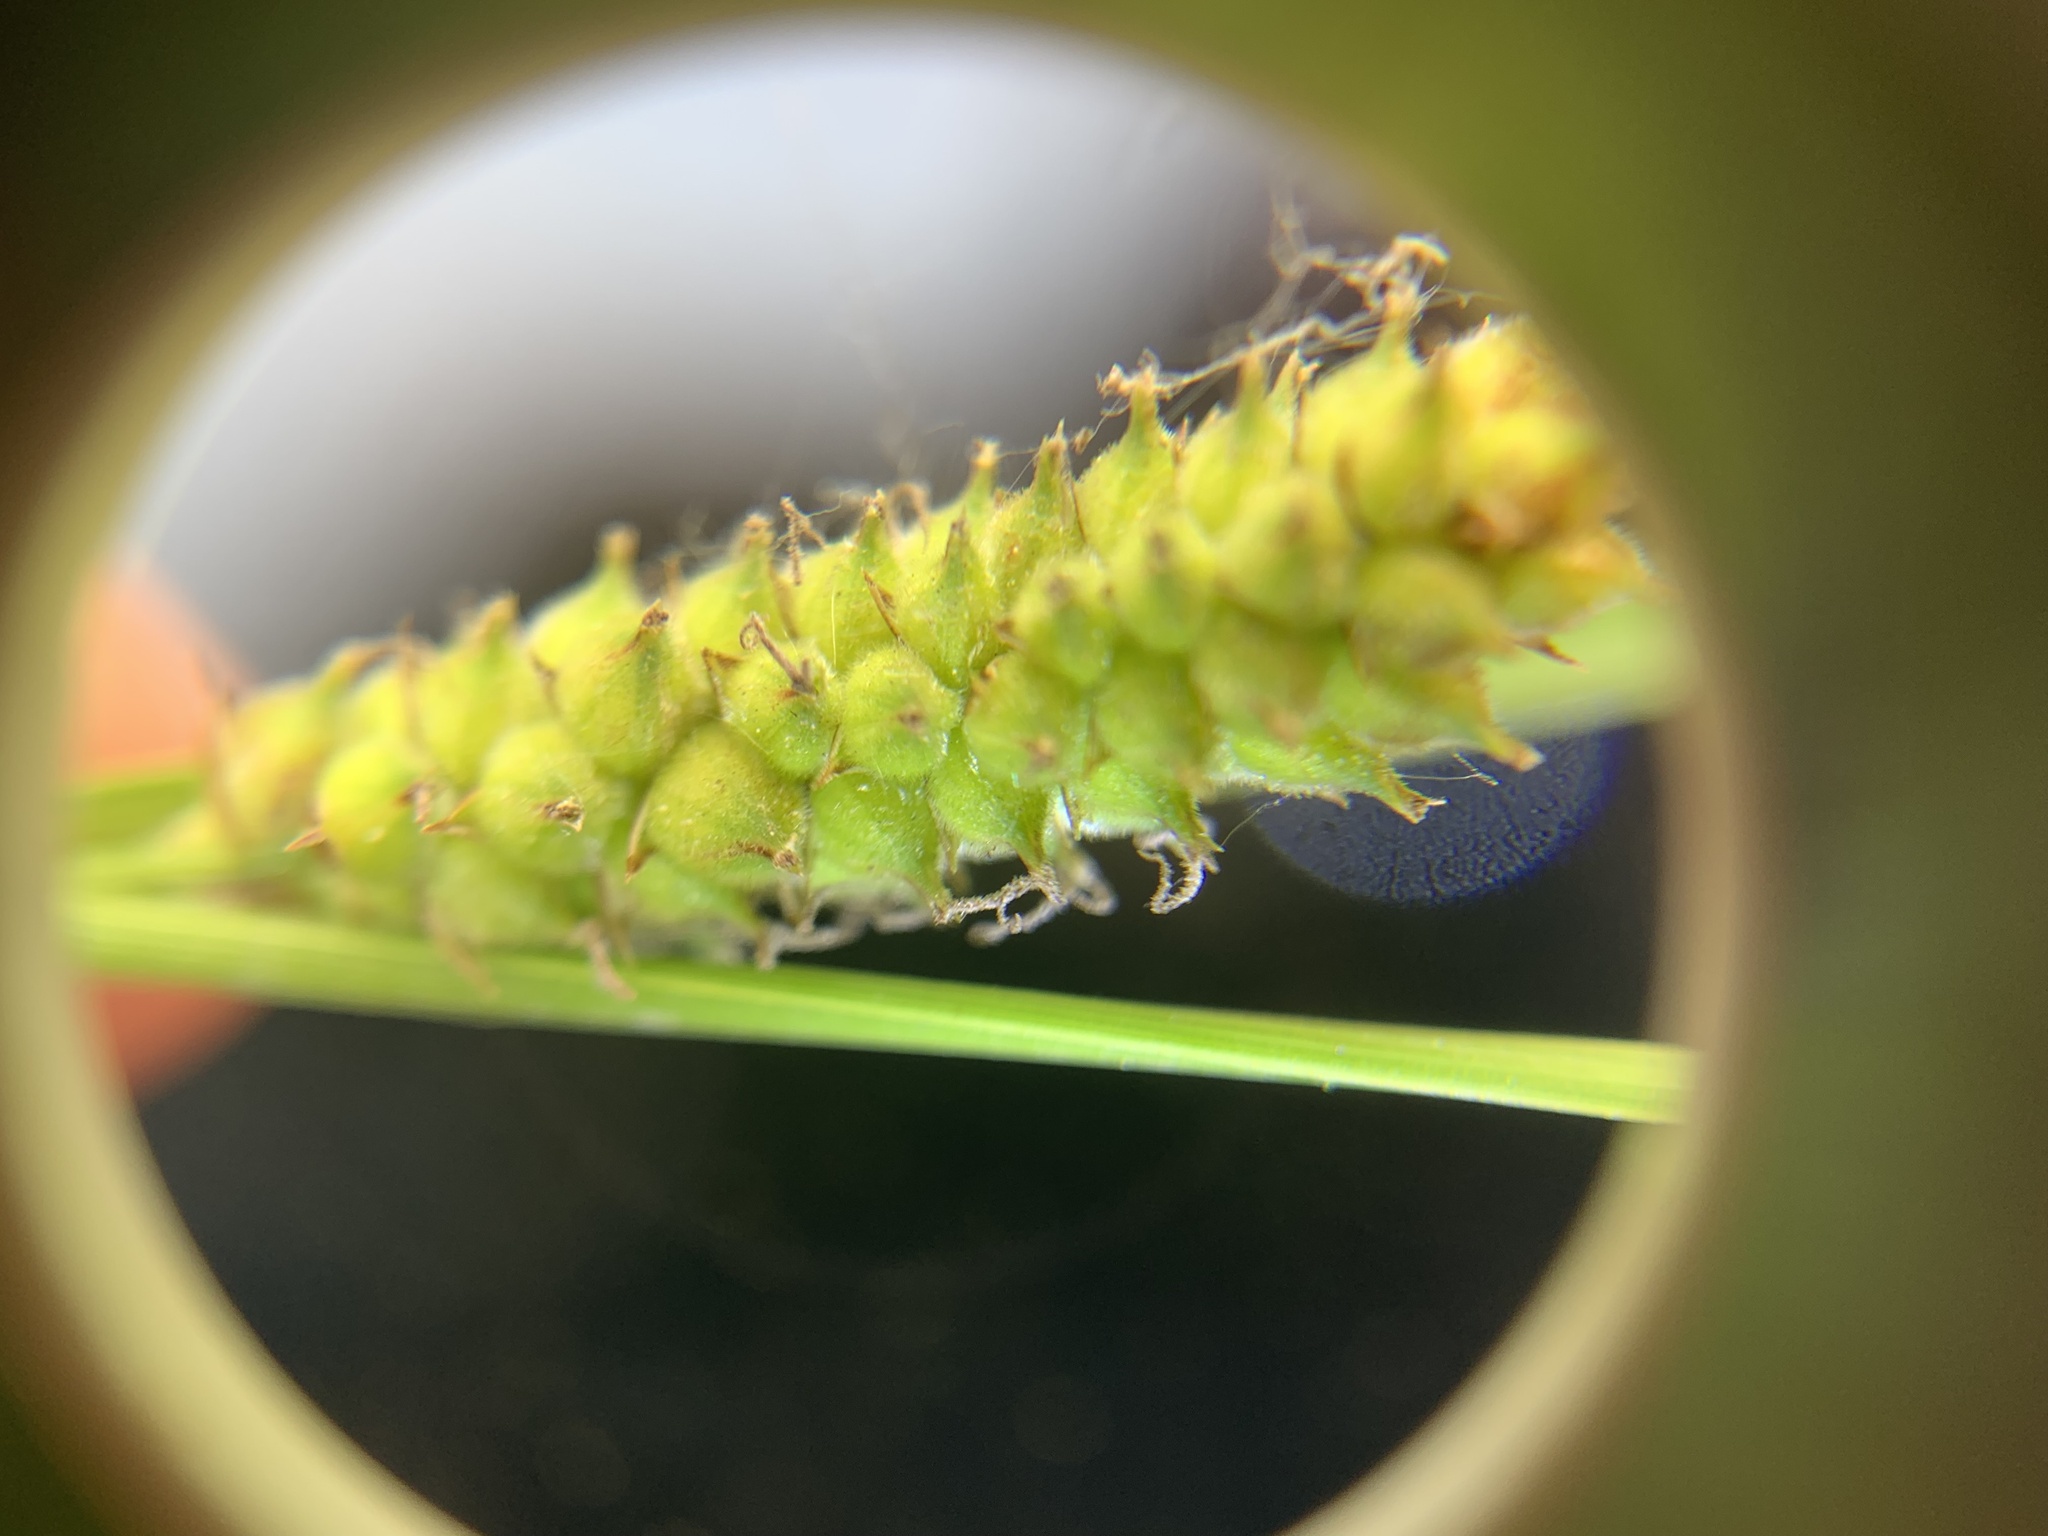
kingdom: Plantae
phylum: Tracheophyta
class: Liliopsida
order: Poales
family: Cyperaceae
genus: Carex
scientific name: Carex pellita
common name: Woolly sedge
